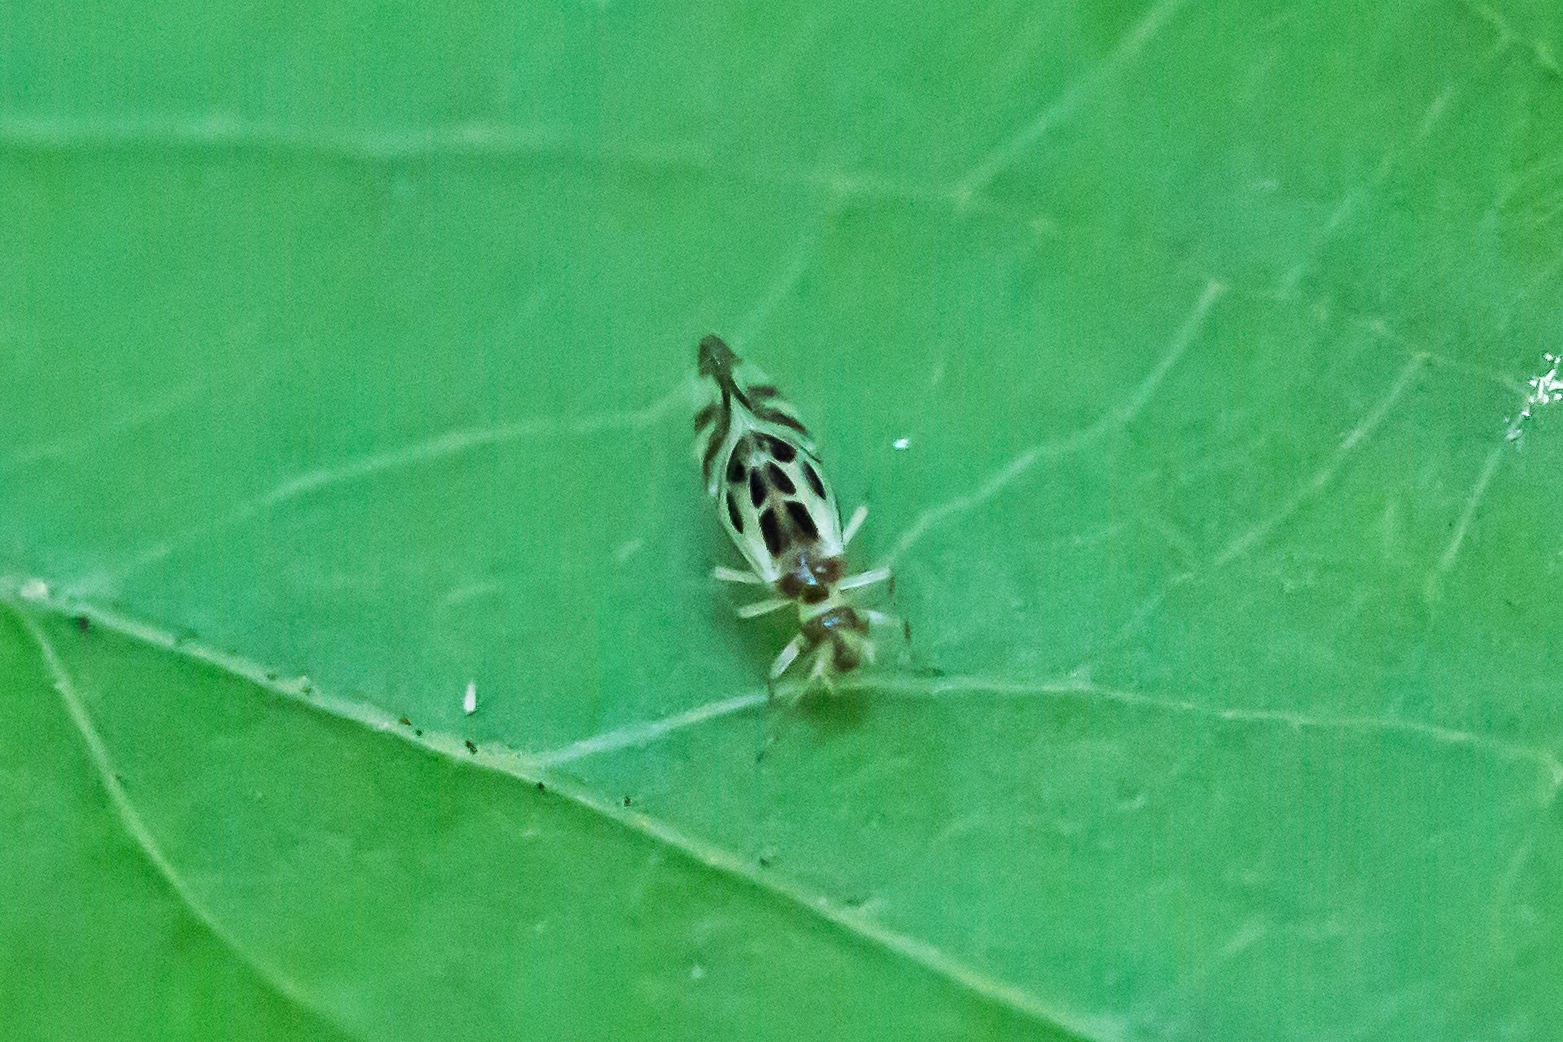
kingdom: Animalia
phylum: Arthropoda
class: Insecta
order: Psocodea
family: Stenopsocidae
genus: Graphopsocus
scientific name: Graphopsocus cruciatus
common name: Lizard bark louse
